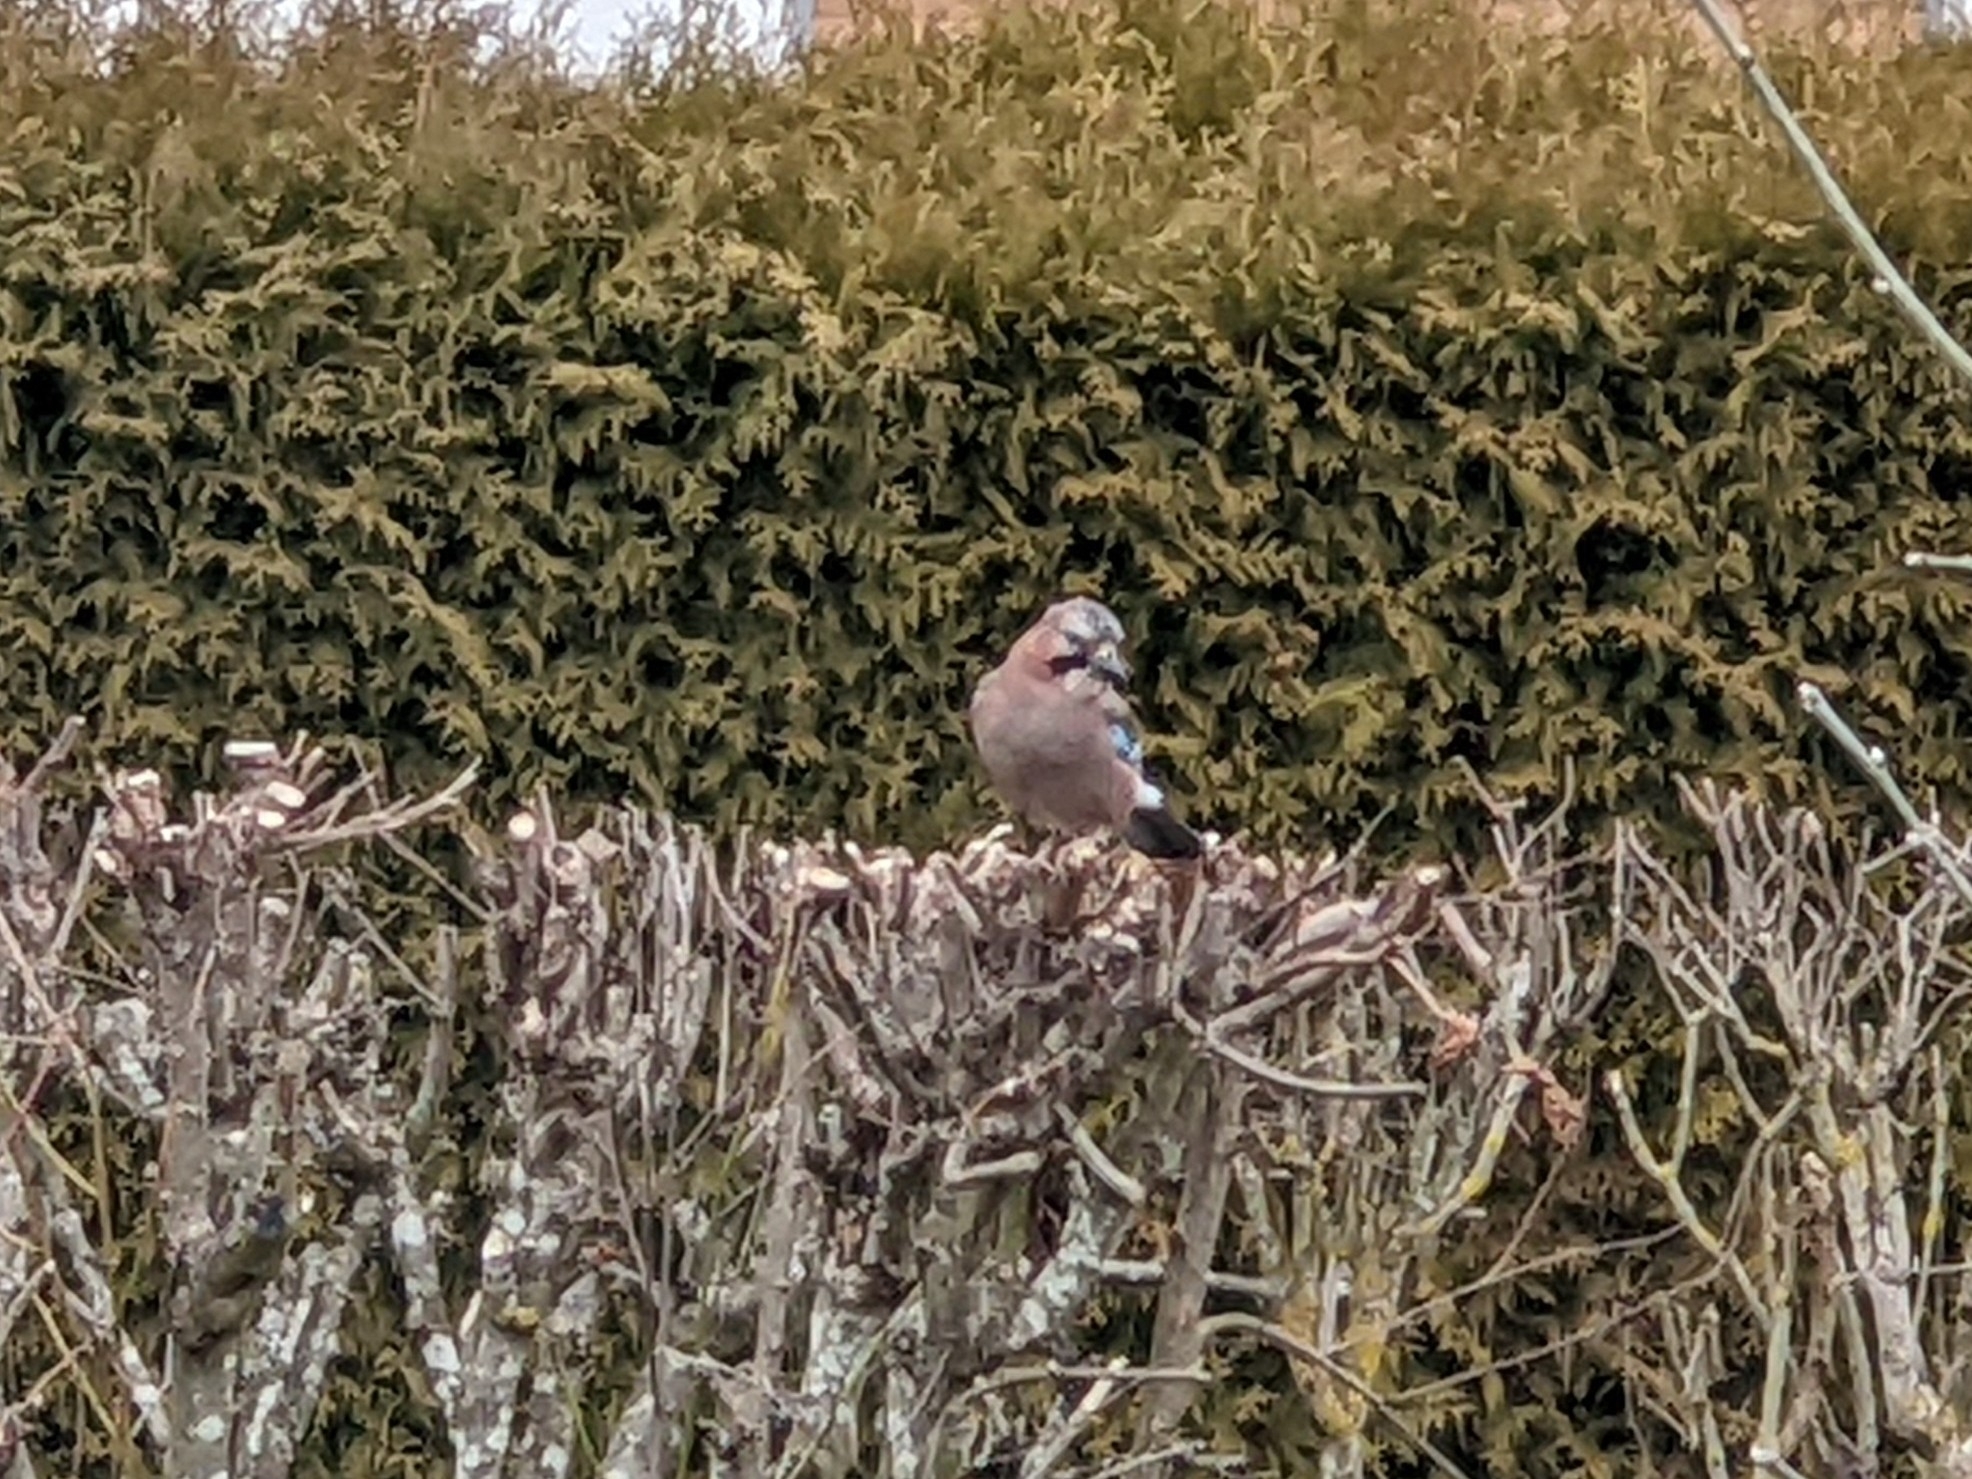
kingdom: Animalia
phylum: Chordata
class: Aves
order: Passeriformes
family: Corvidae
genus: Garrulus
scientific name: Garrulus glandarius
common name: Eurasian jay
